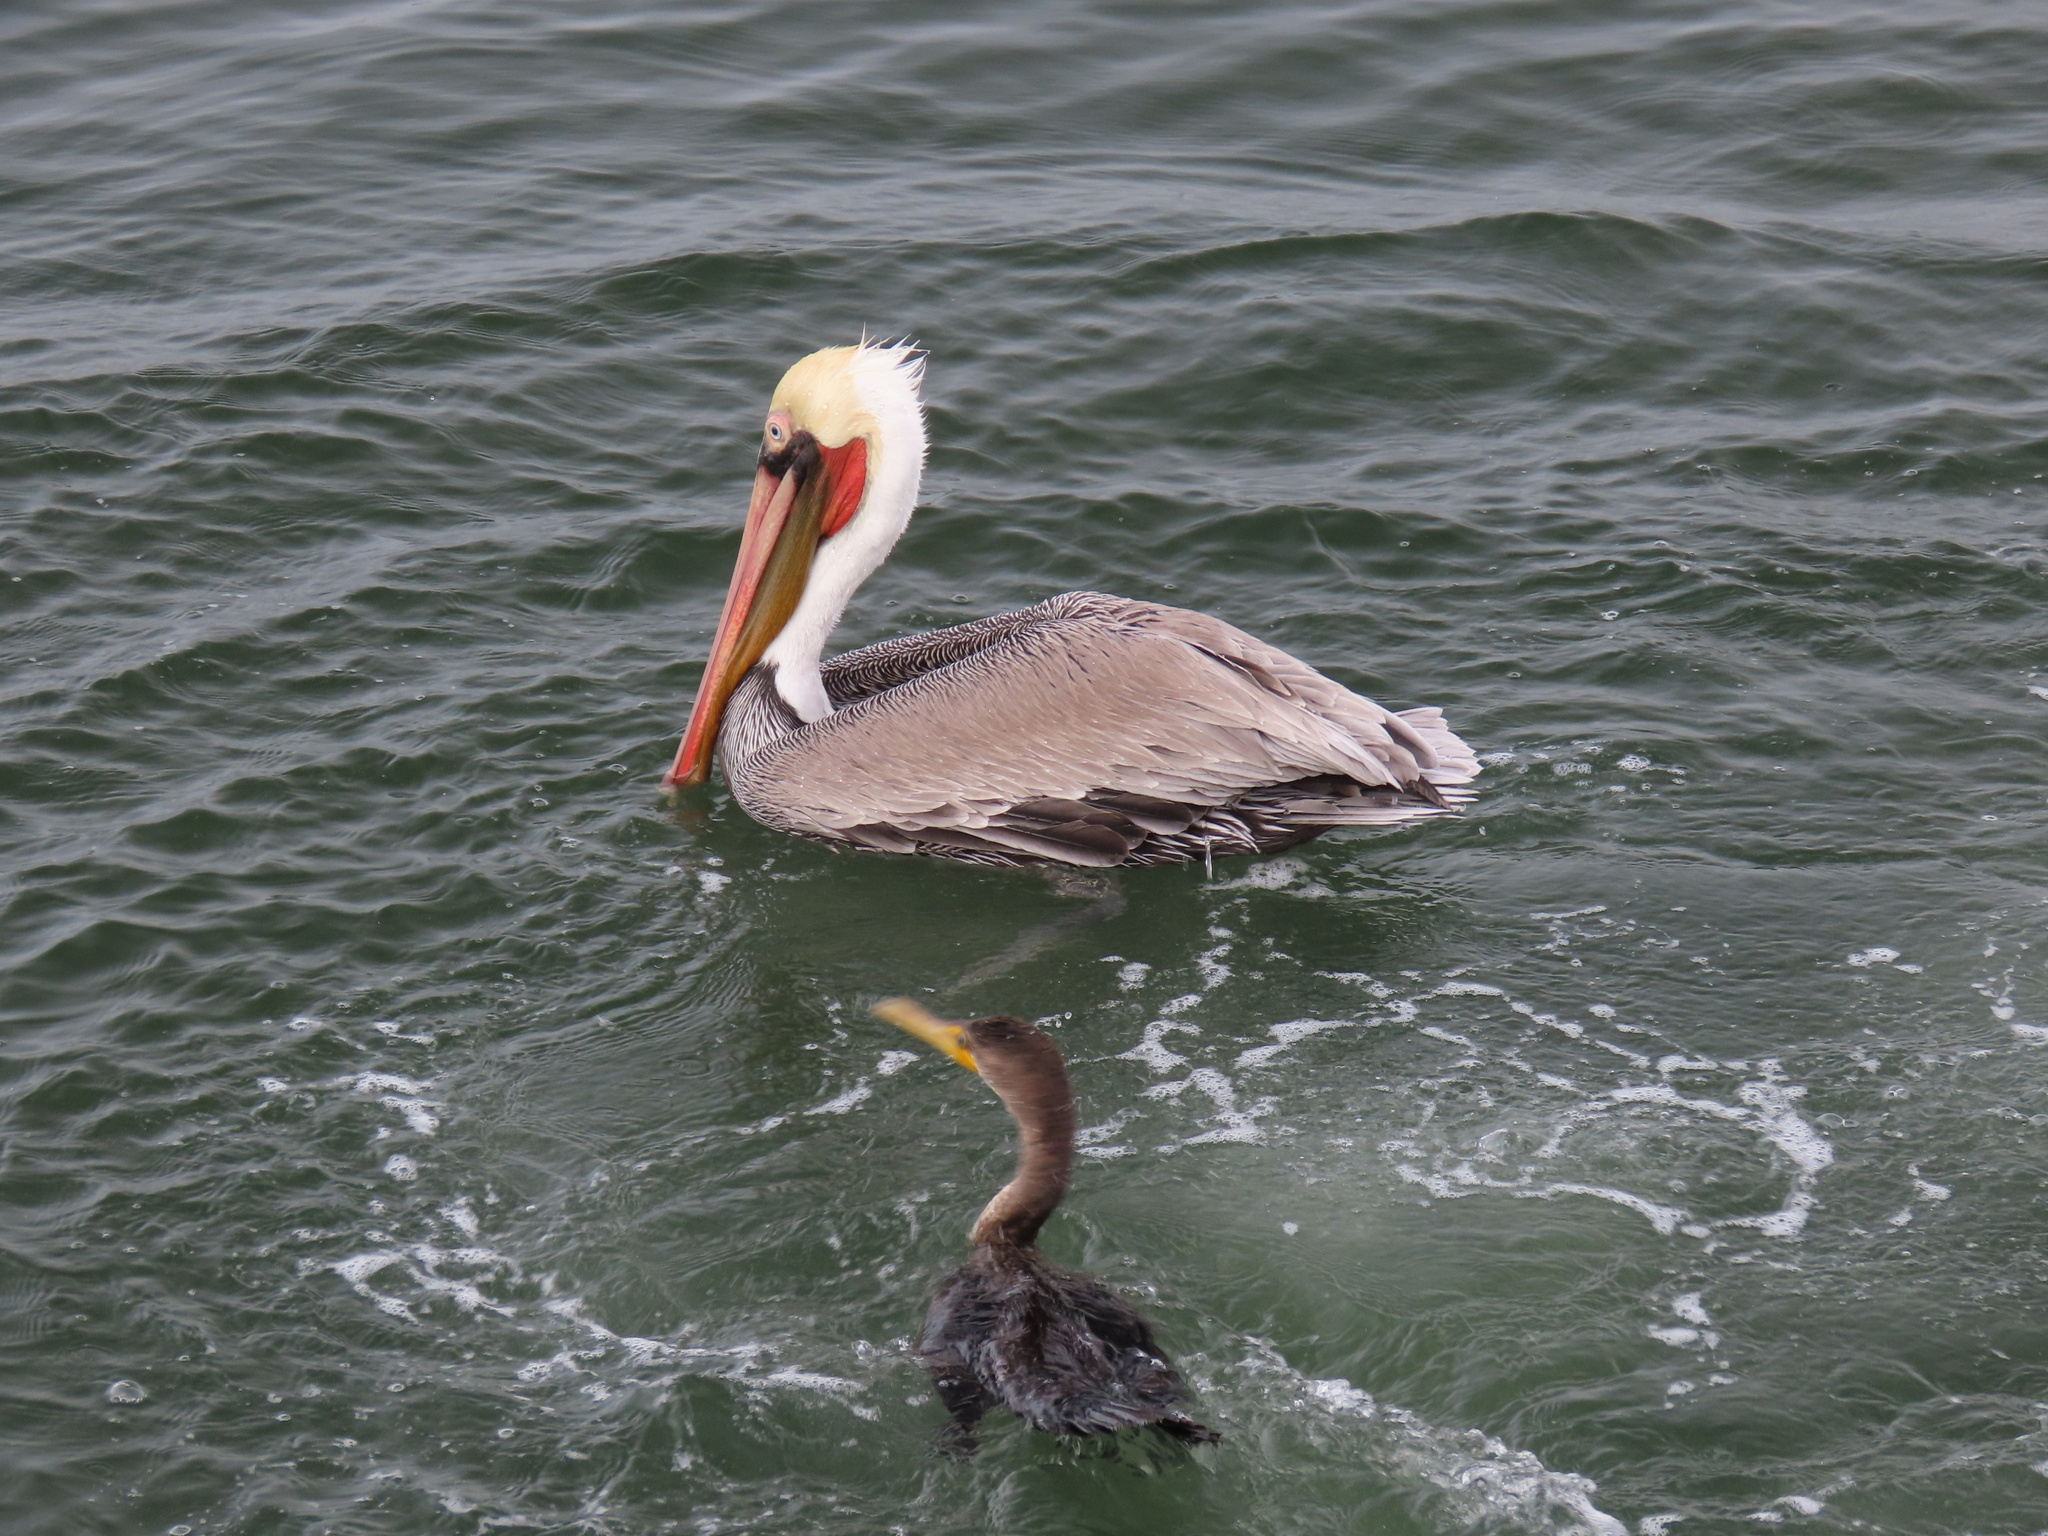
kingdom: Animalia
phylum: Chordata
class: Aves
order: Pelecaniformes
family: Pelecanidae
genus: Pelecanus
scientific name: Pelecanus occidentalis
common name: Brown pelican
